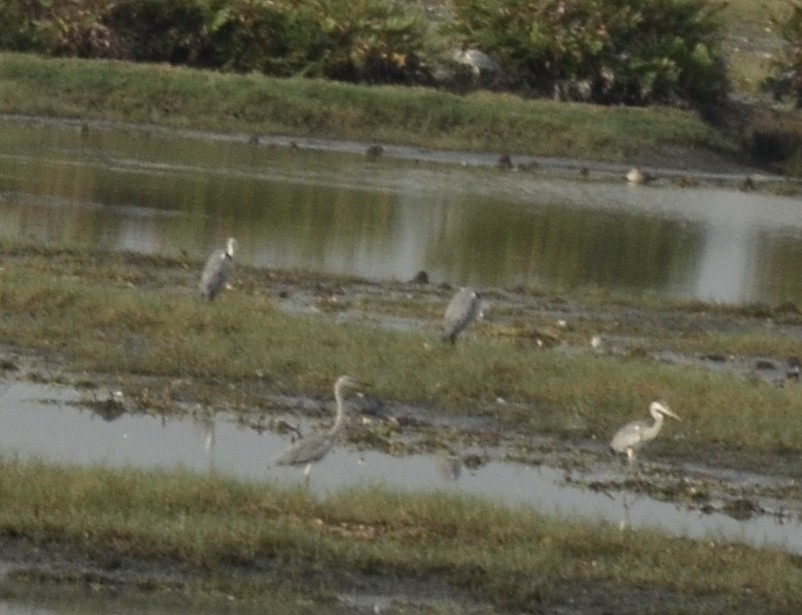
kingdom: Animalia
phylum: Chordata
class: Aves
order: Pelecaniformes
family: Ardeidae
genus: Ardea
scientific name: Ardea cinerea
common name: Grey heron
